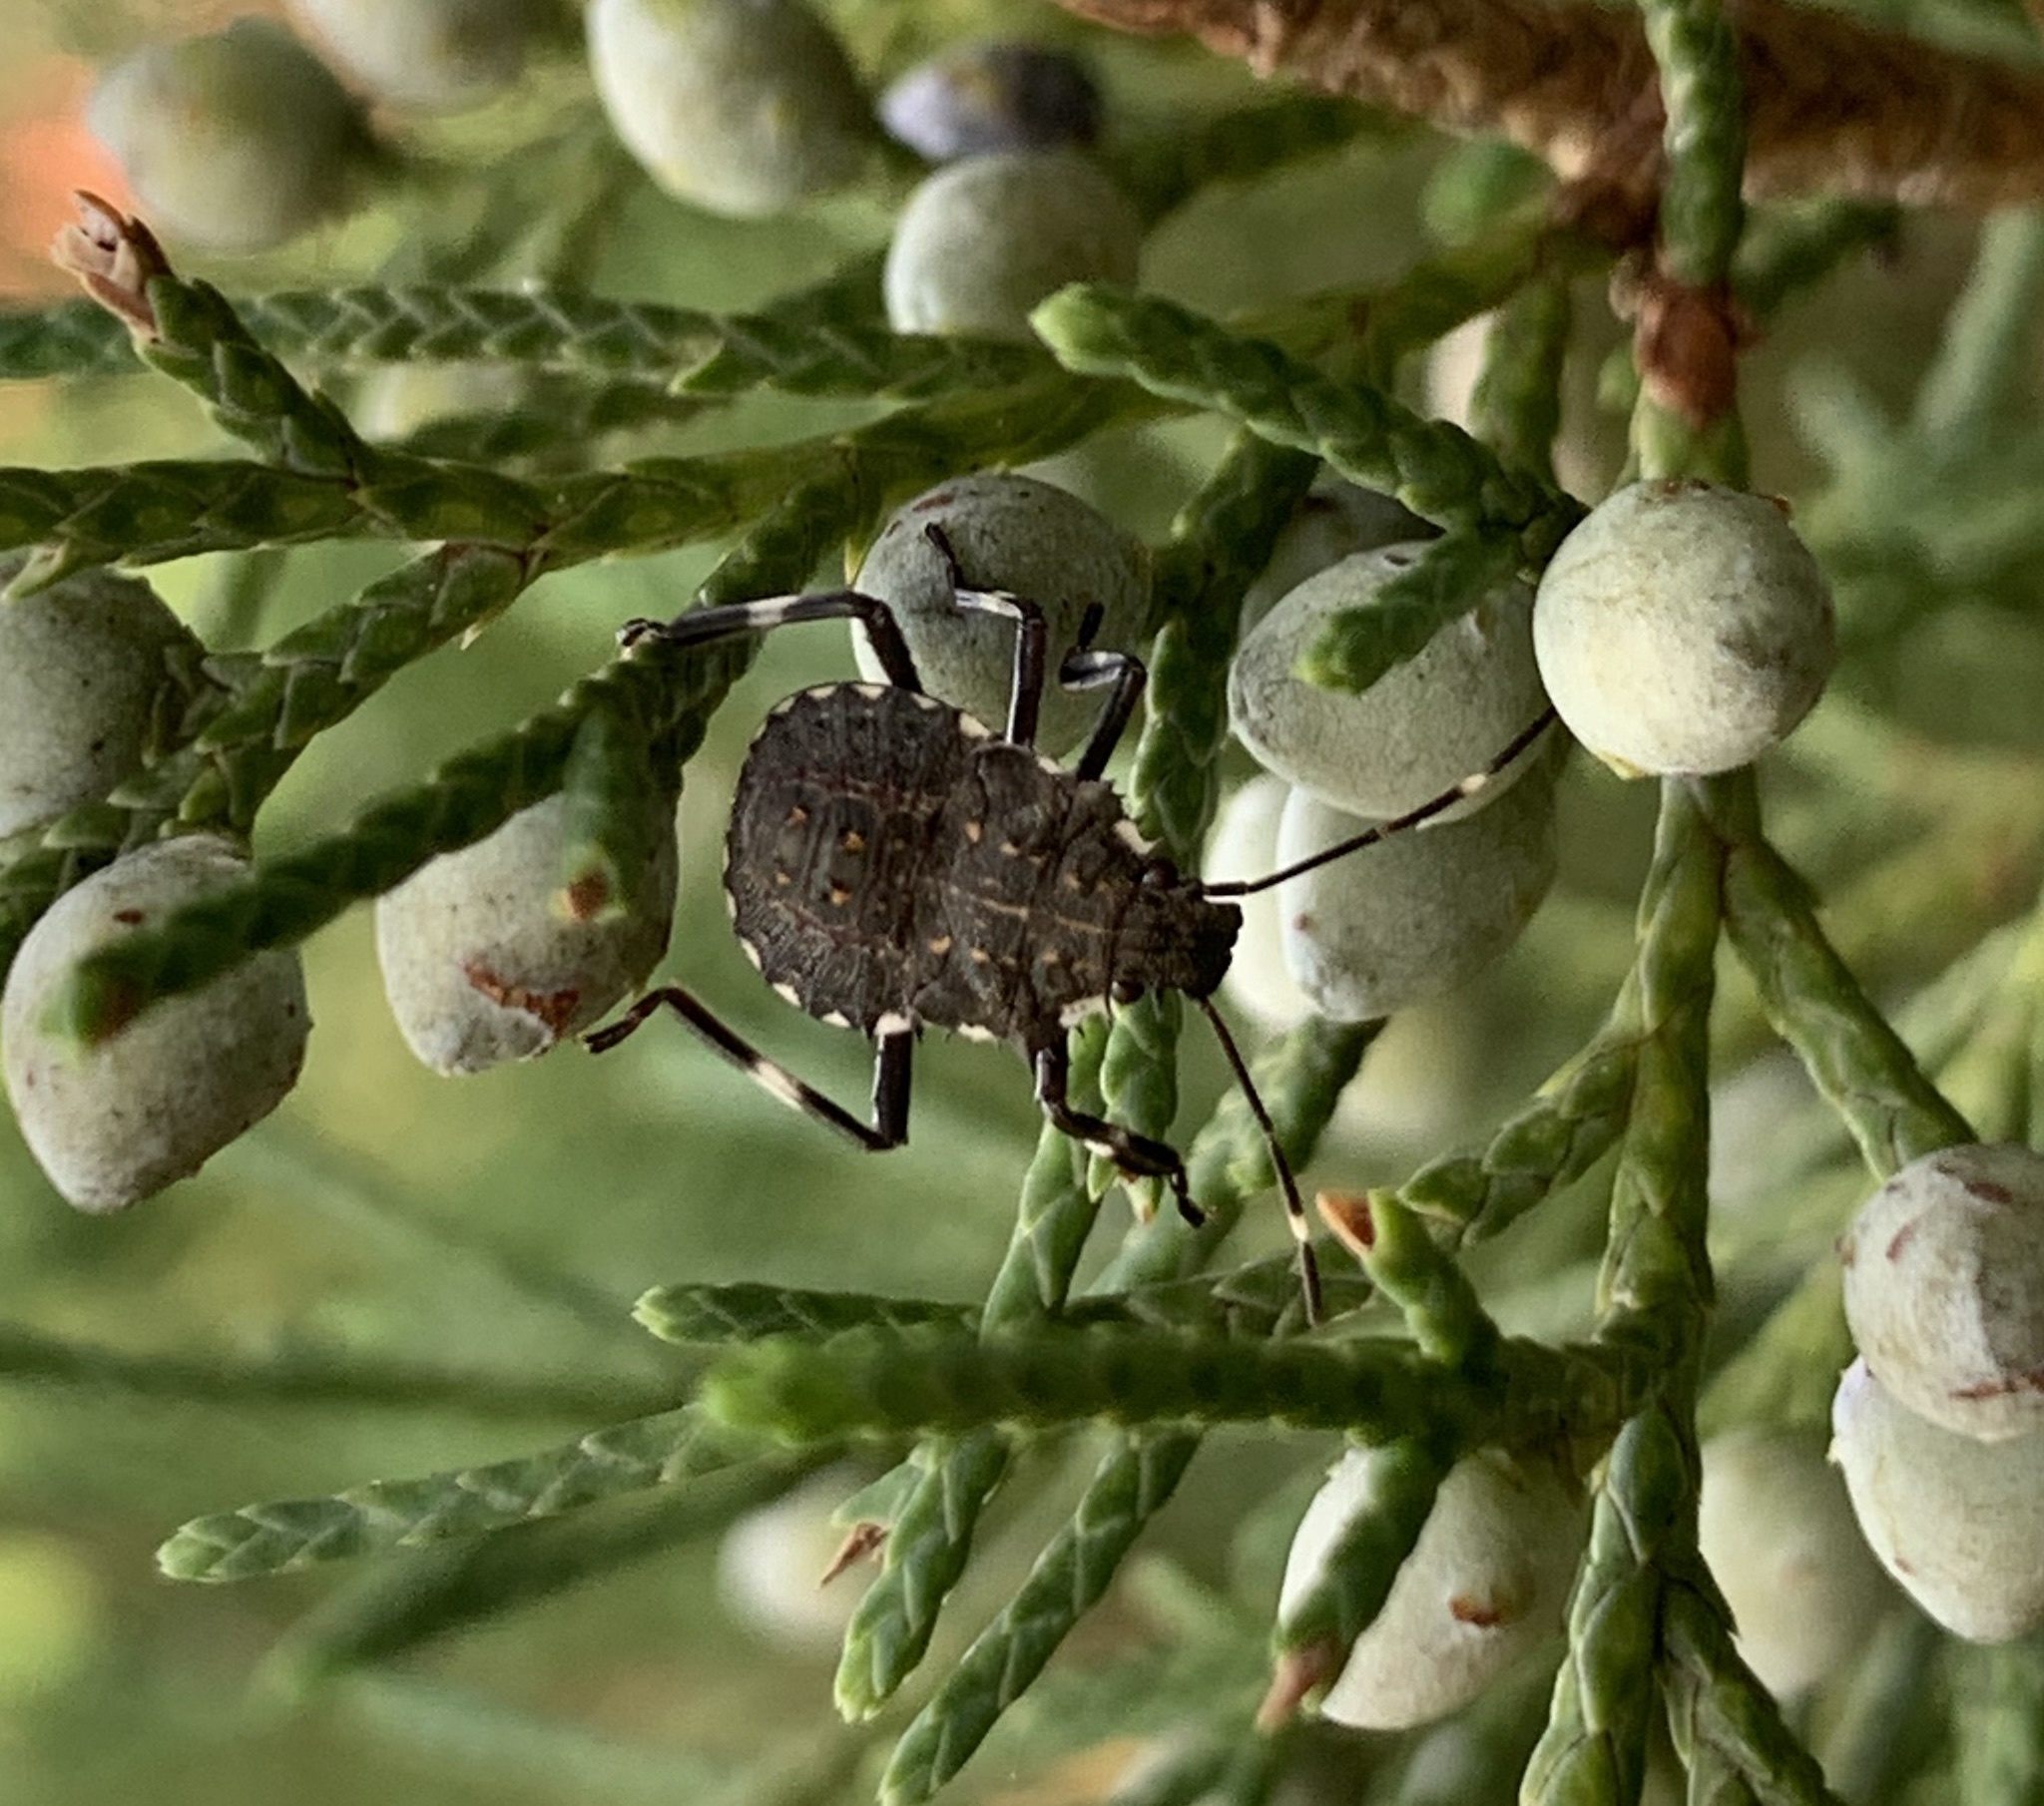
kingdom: Animalia
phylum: Arthropoda
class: Insecta
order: Hemiptera
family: Pentatomidae
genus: Halyomorpha
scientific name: Halyomorpha halys
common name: Brown marmorated stink bug
